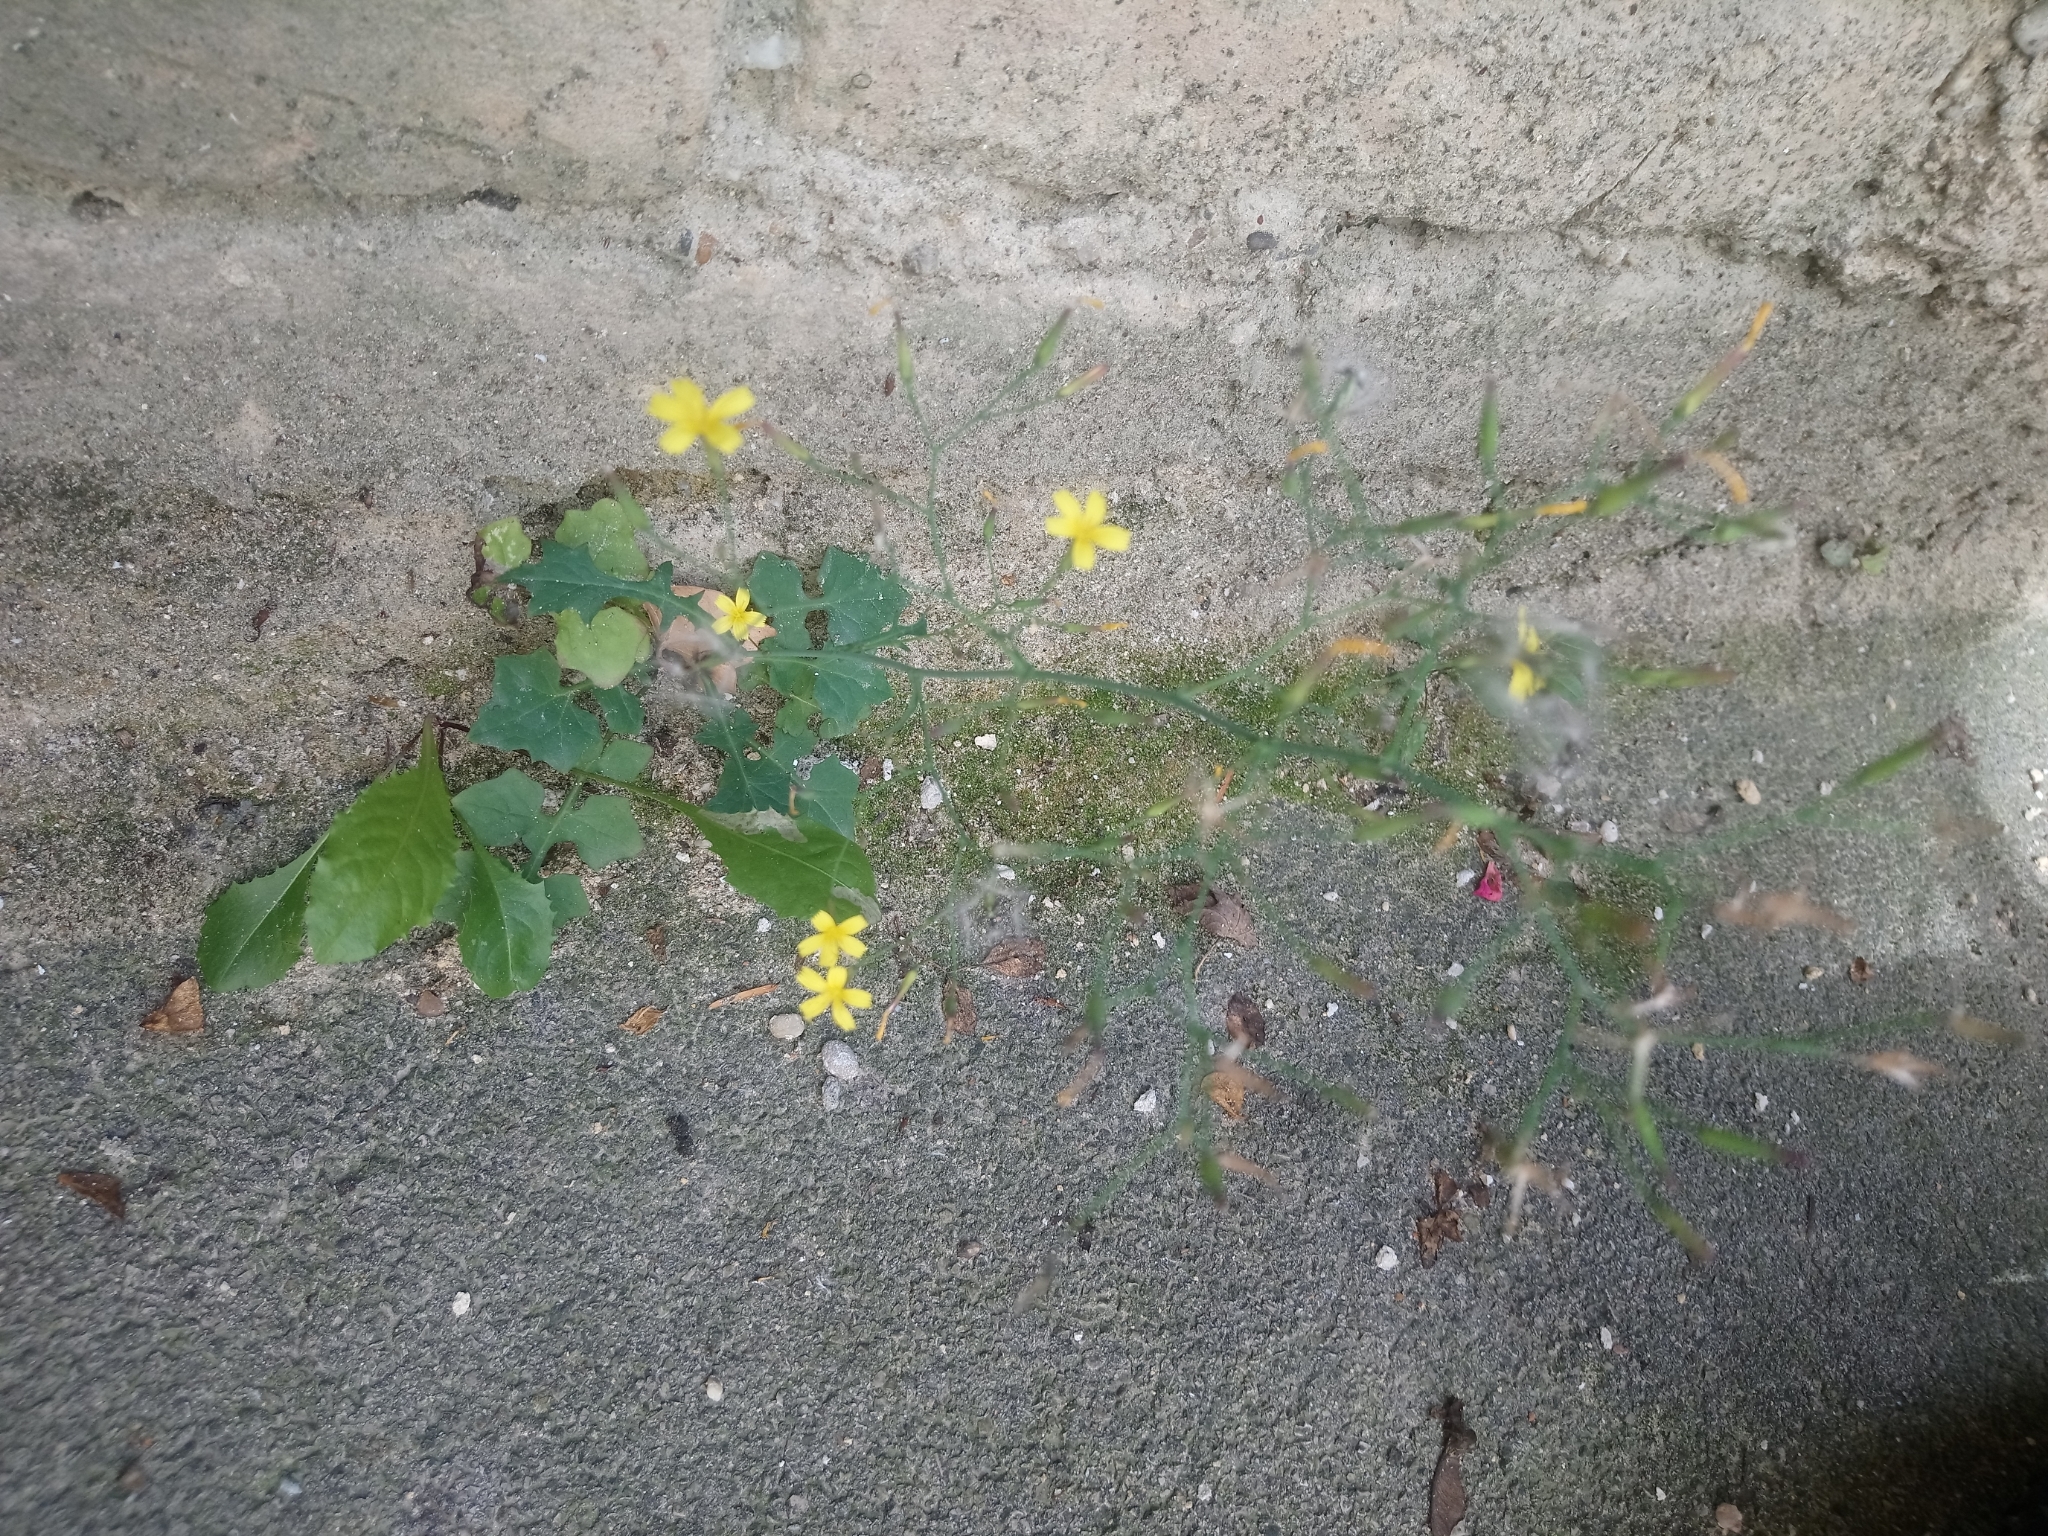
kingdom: Plantae
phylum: Tracheophyta
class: Magnoliopsida
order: Asterales
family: Asteraceae
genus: Mycelis
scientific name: Mycelis muralis
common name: Wall lettuce
